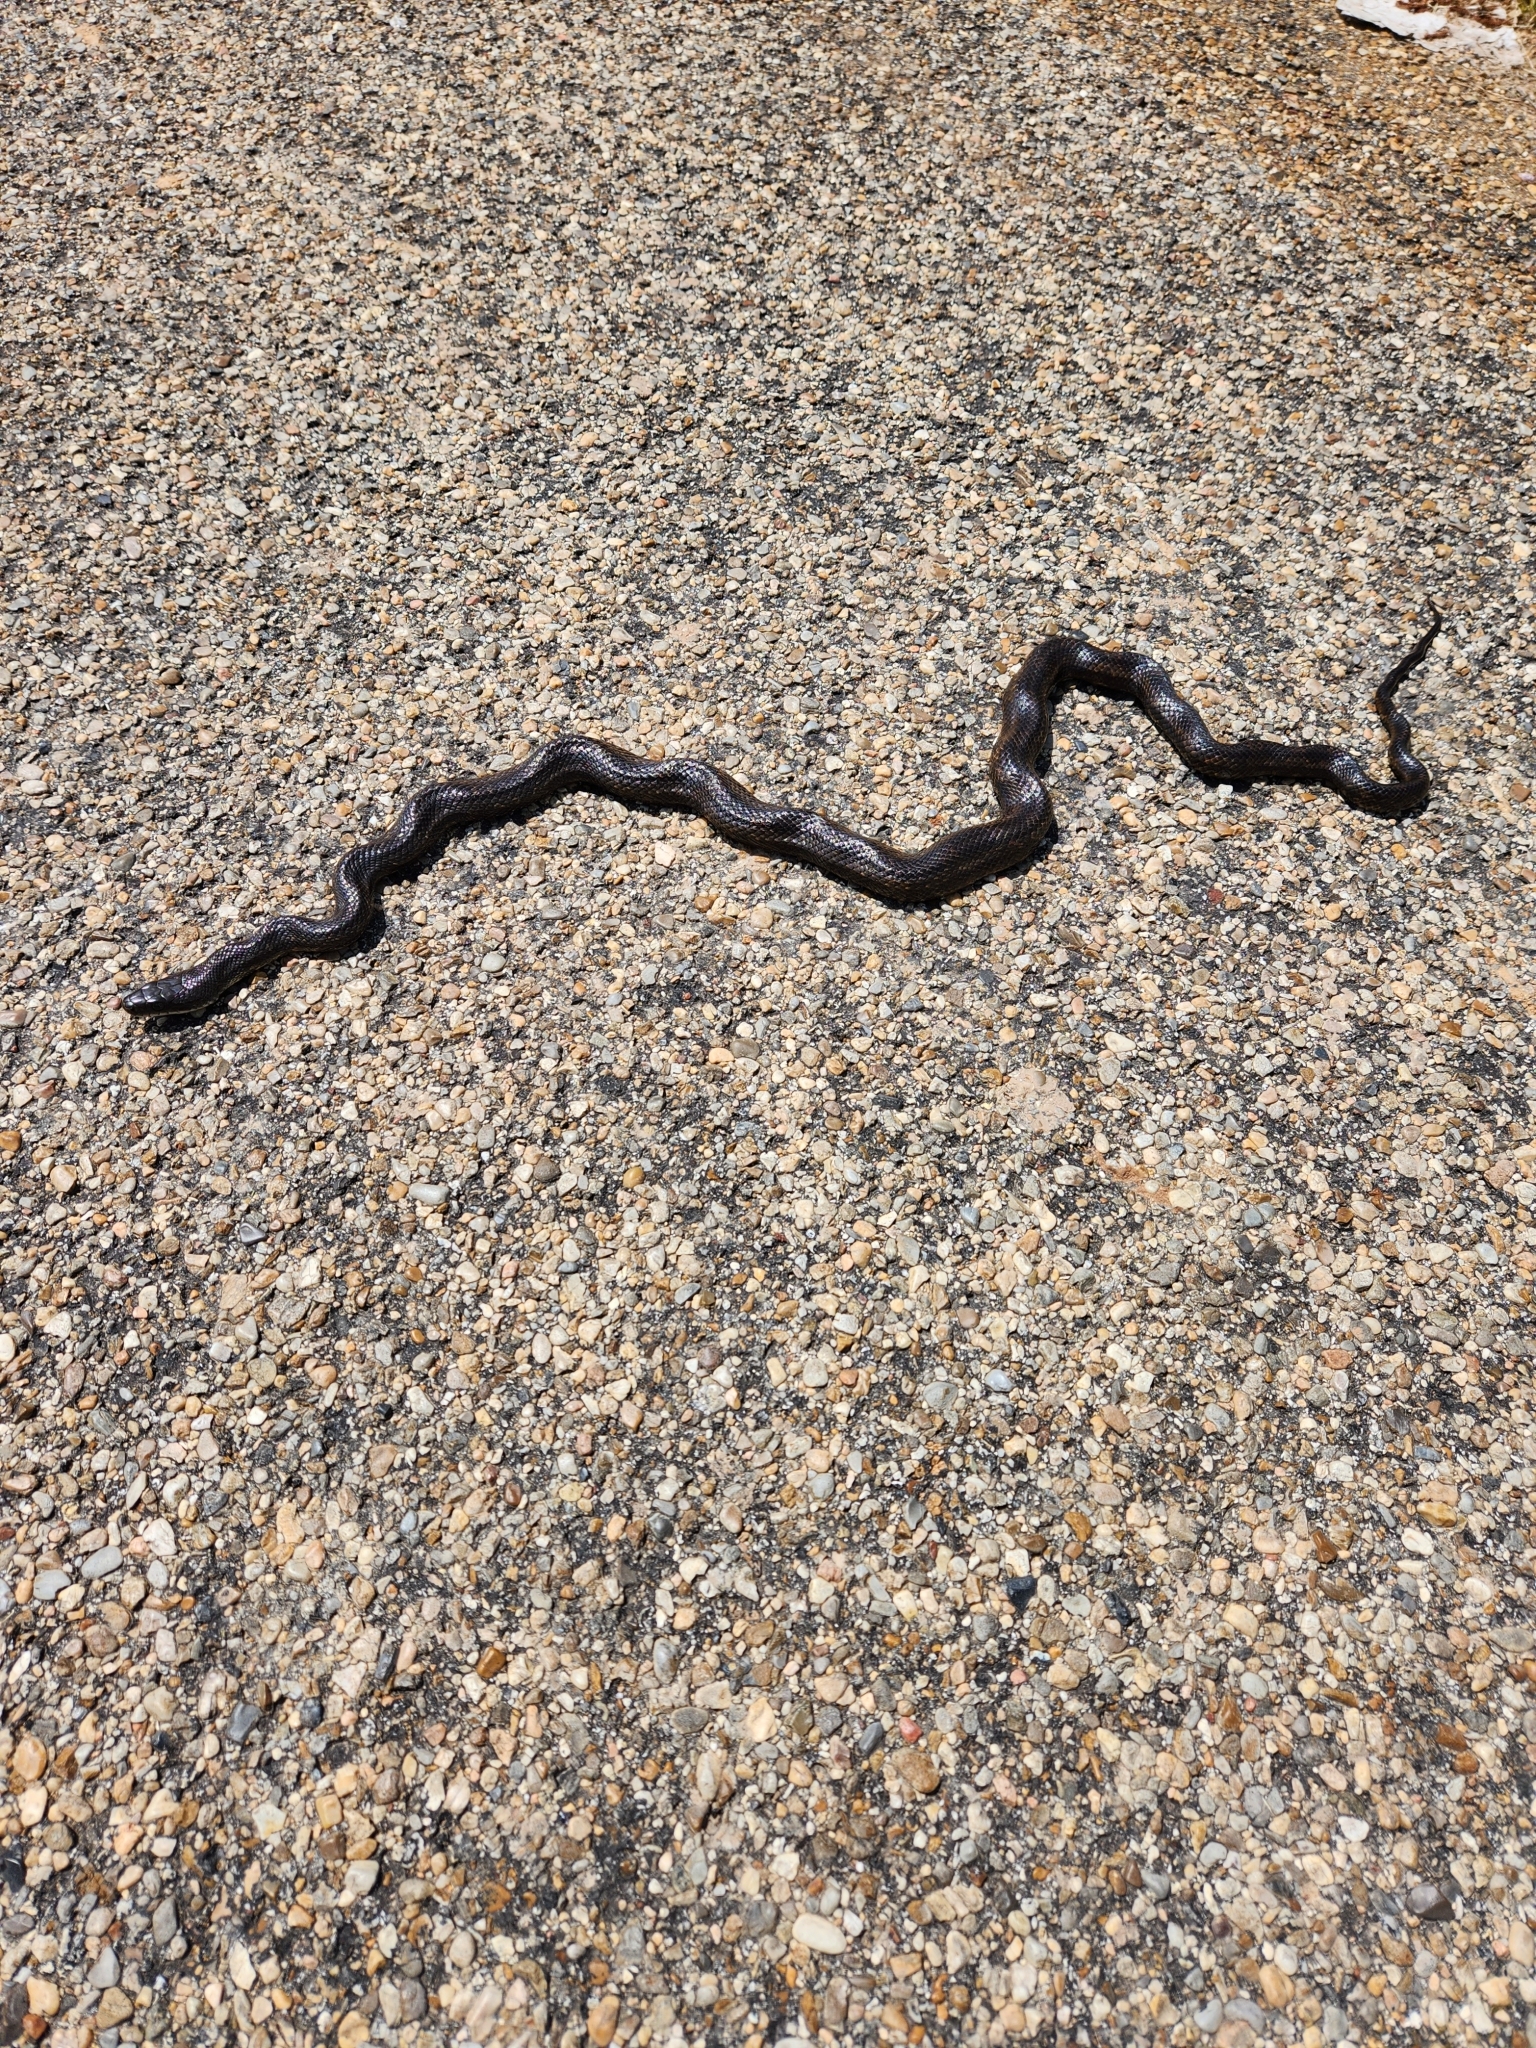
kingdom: Animalia
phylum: Chordata
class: Squamata
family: Colubridae
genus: Pantherophis
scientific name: Pantherophis obsoletus
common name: Black rat snake
